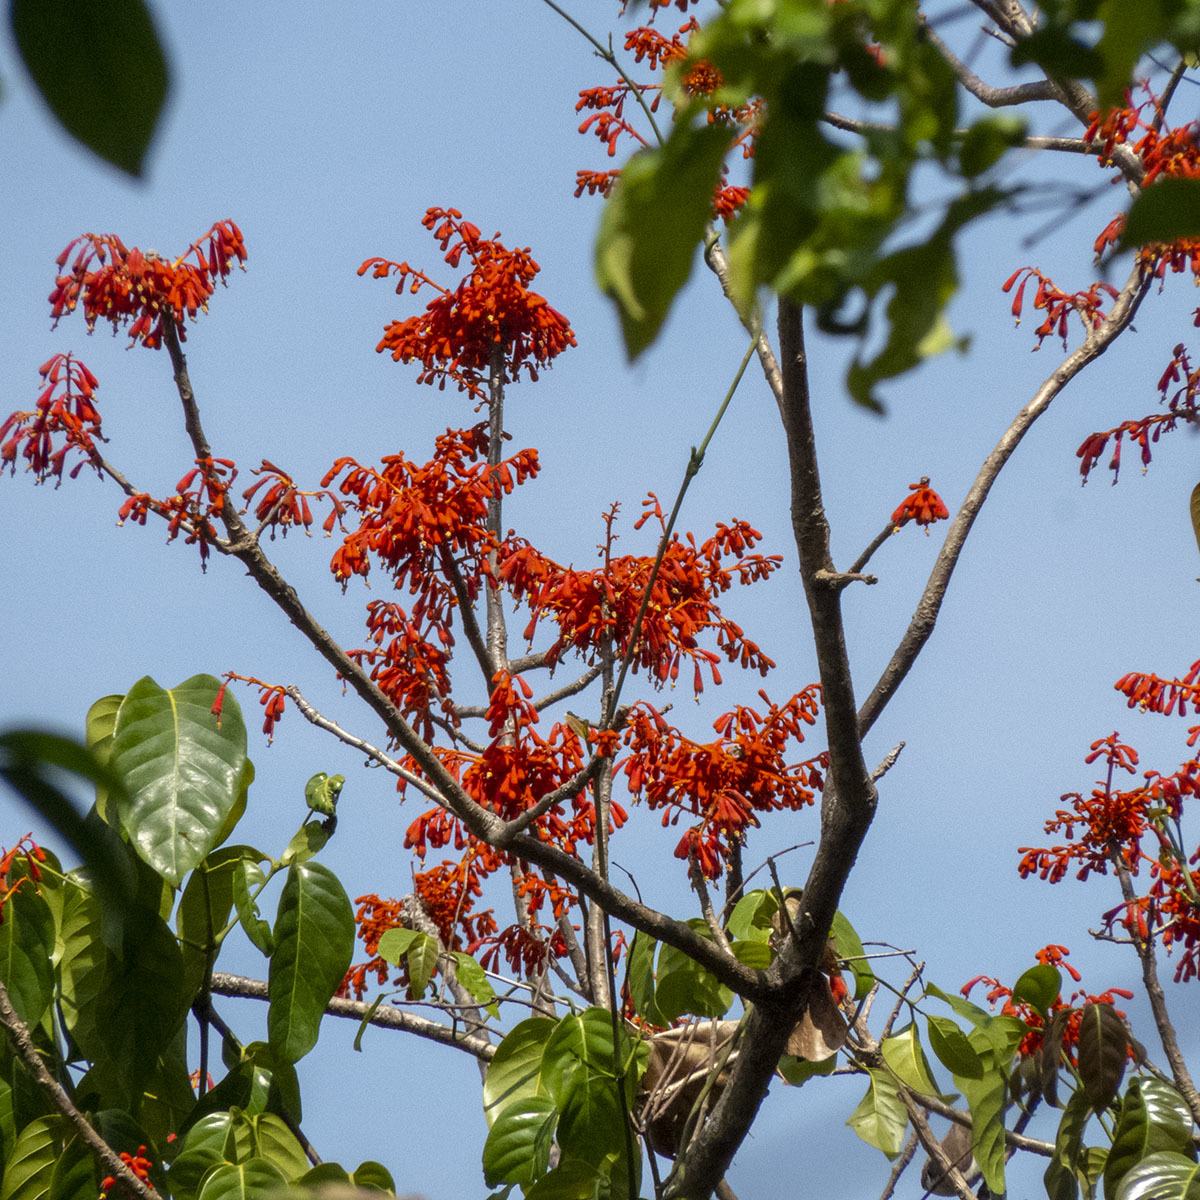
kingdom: Plantae
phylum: Tracheophyta
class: Magnoliopsida
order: Malvales
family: Malvaceae
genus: Firmiana
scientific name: Firmiana colorata
